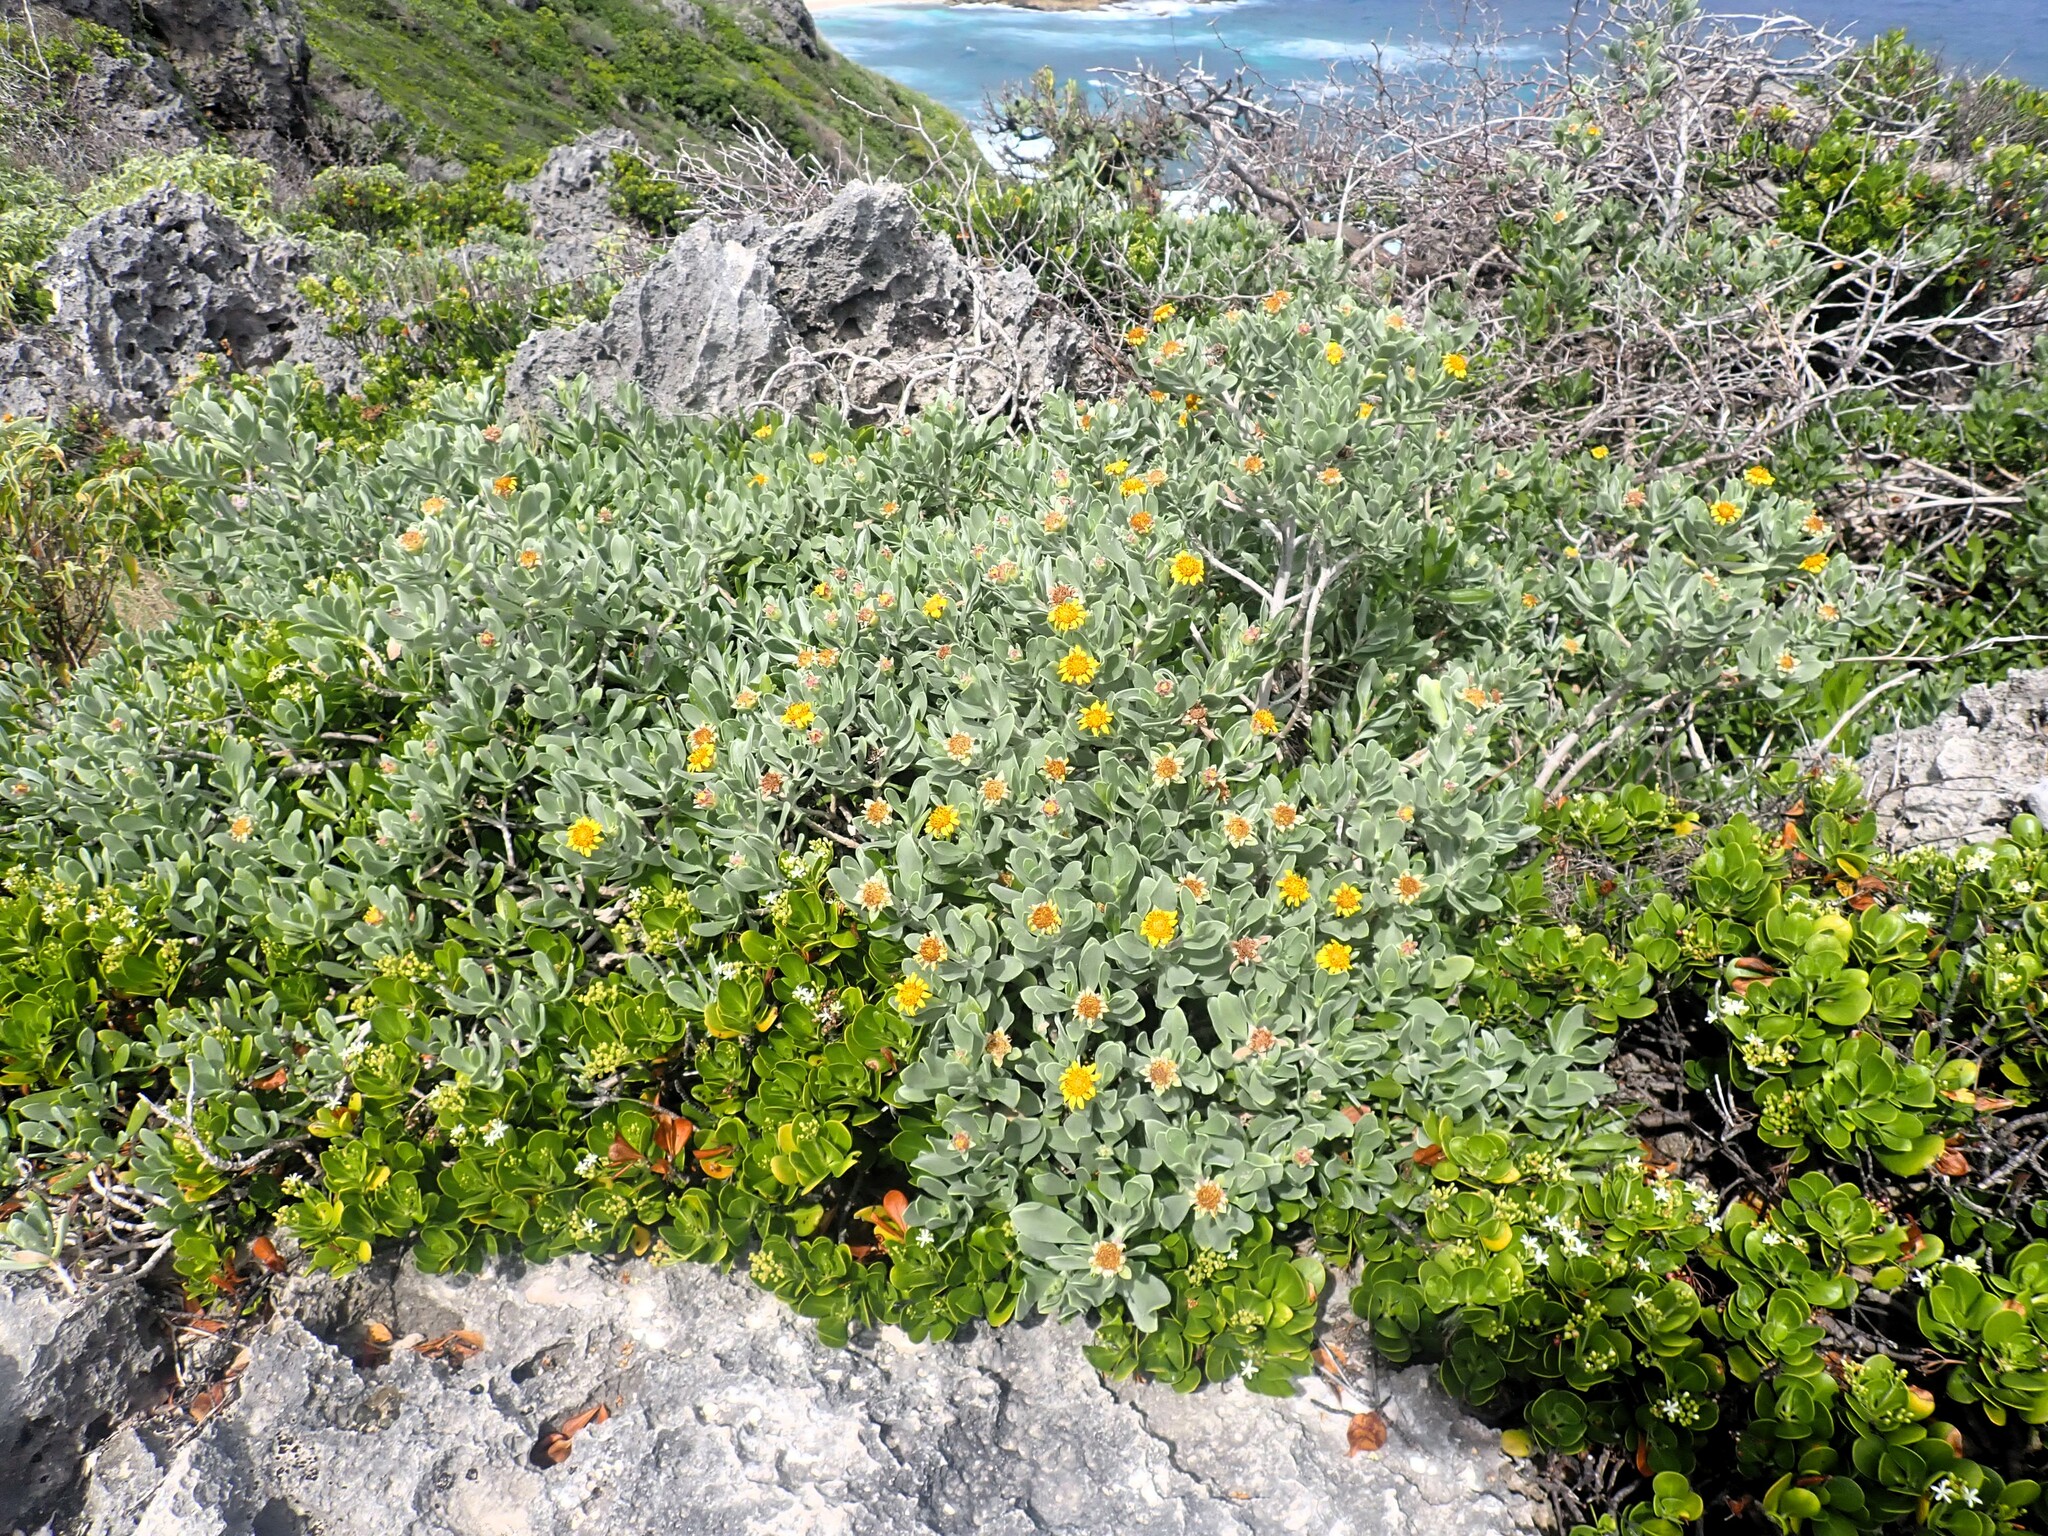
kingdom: Plantae
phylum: Tracheophyta
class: Magnoliopsida
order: Asterales
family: Asteraceae
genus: Borrichia
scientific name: Borrichia arborescens
